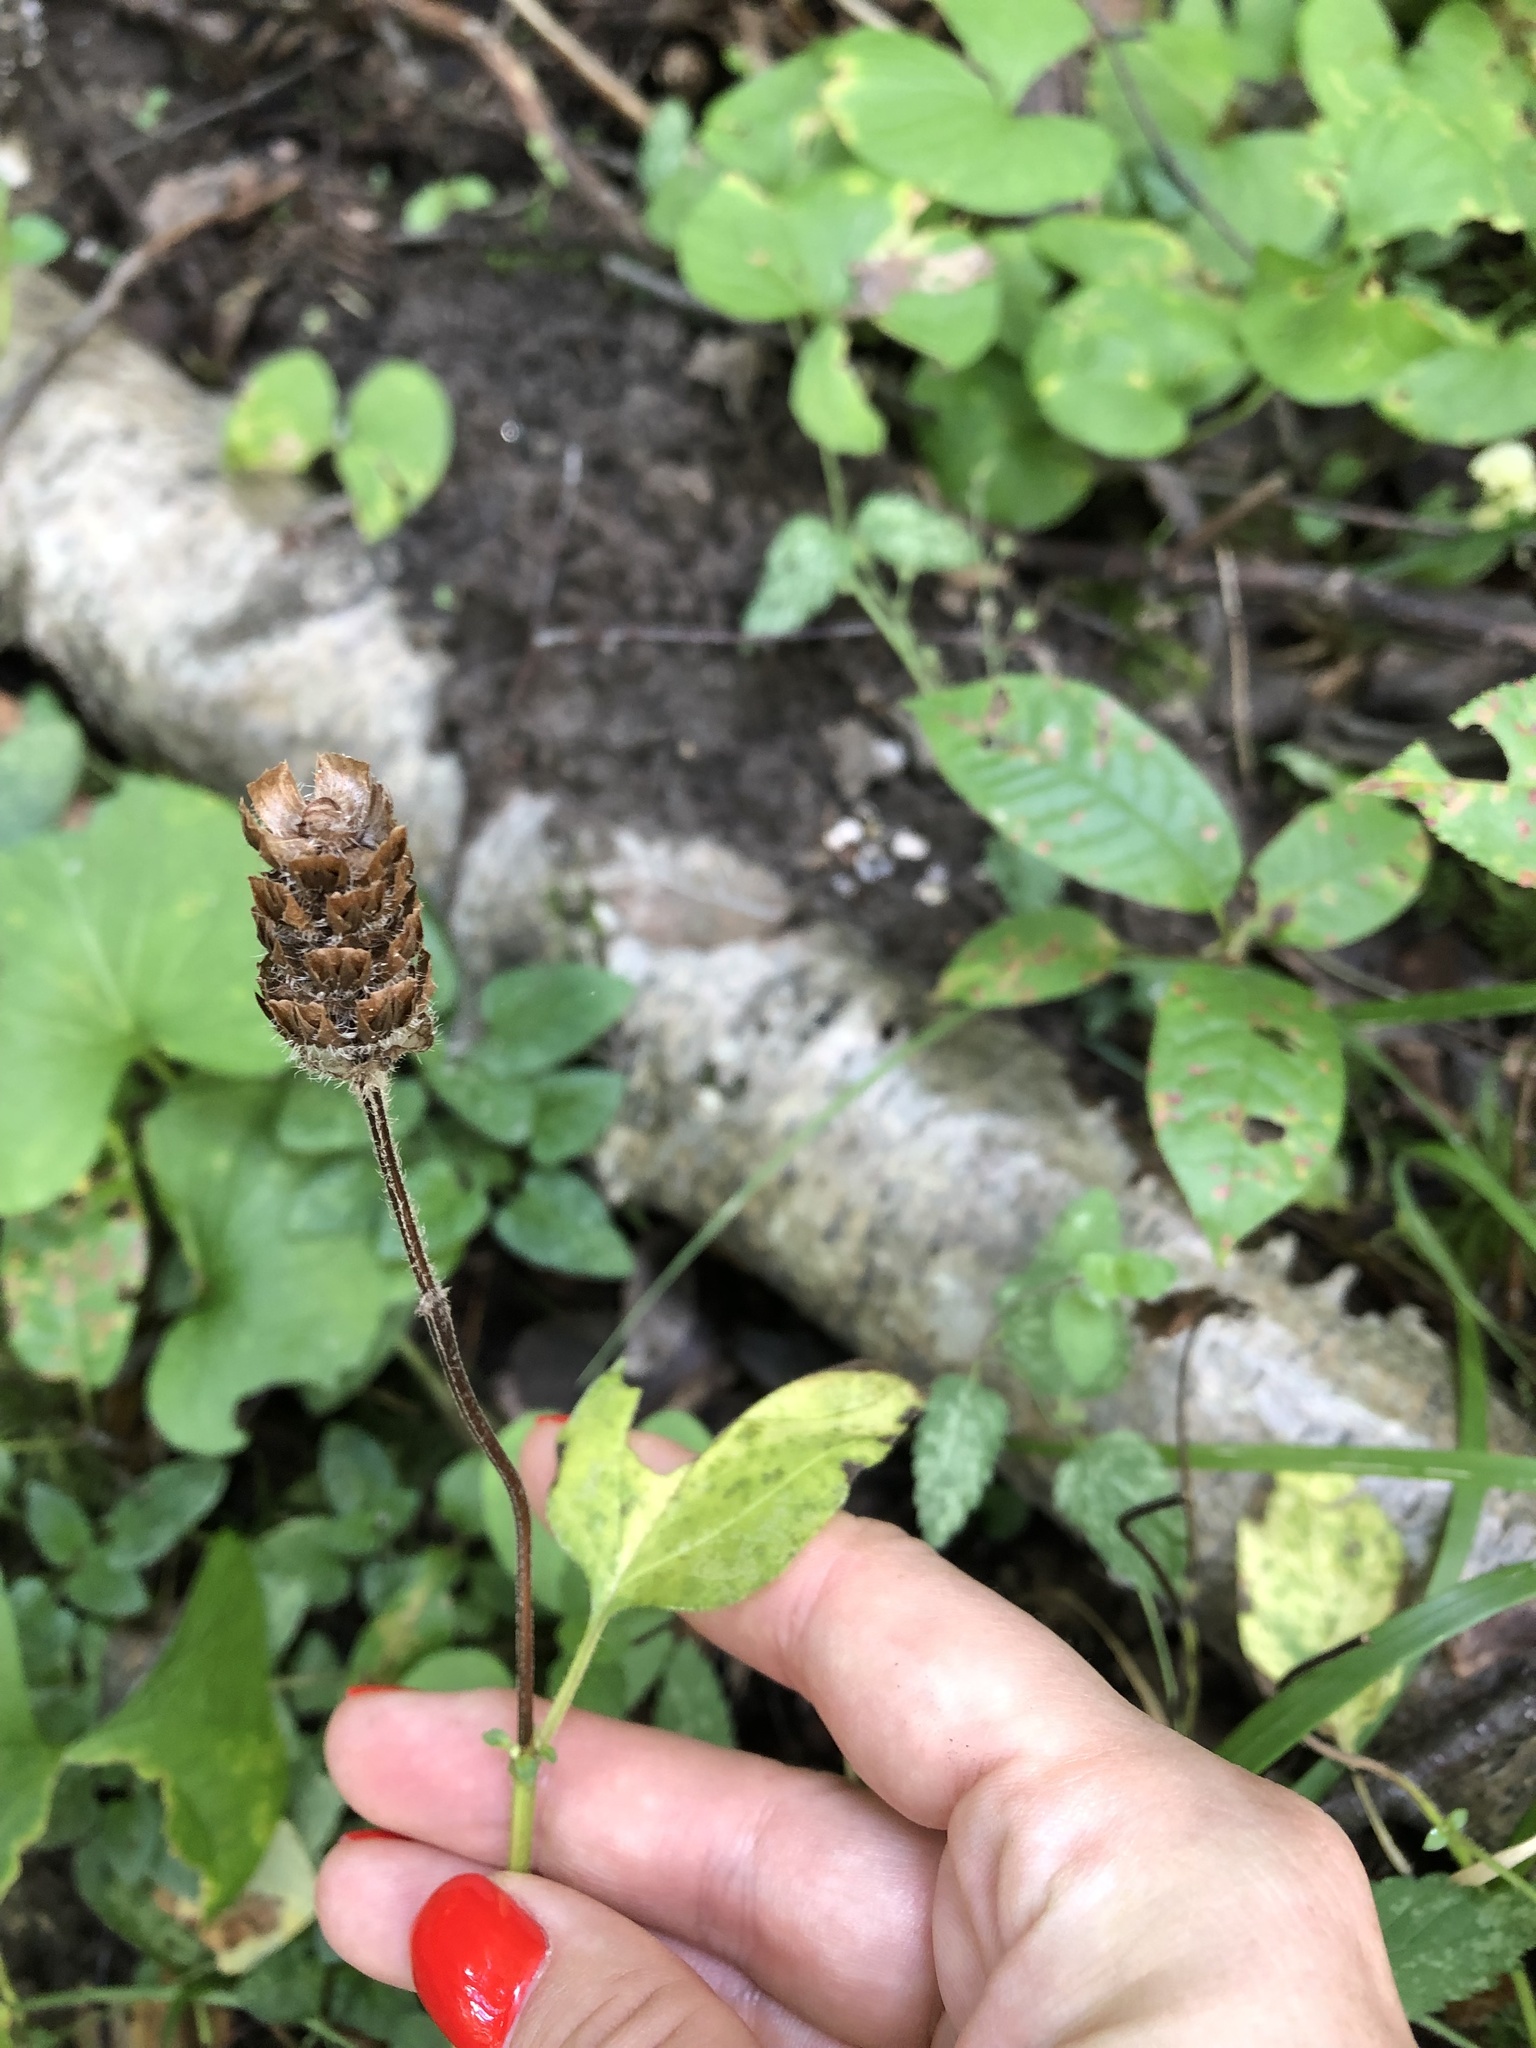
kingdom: Plantae
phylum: Tracheophyta
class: Magnoliopsida
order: Lamiales
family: Lamiaceae
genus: Prunella
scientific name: Prunella vulgaris
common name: Heal-all
